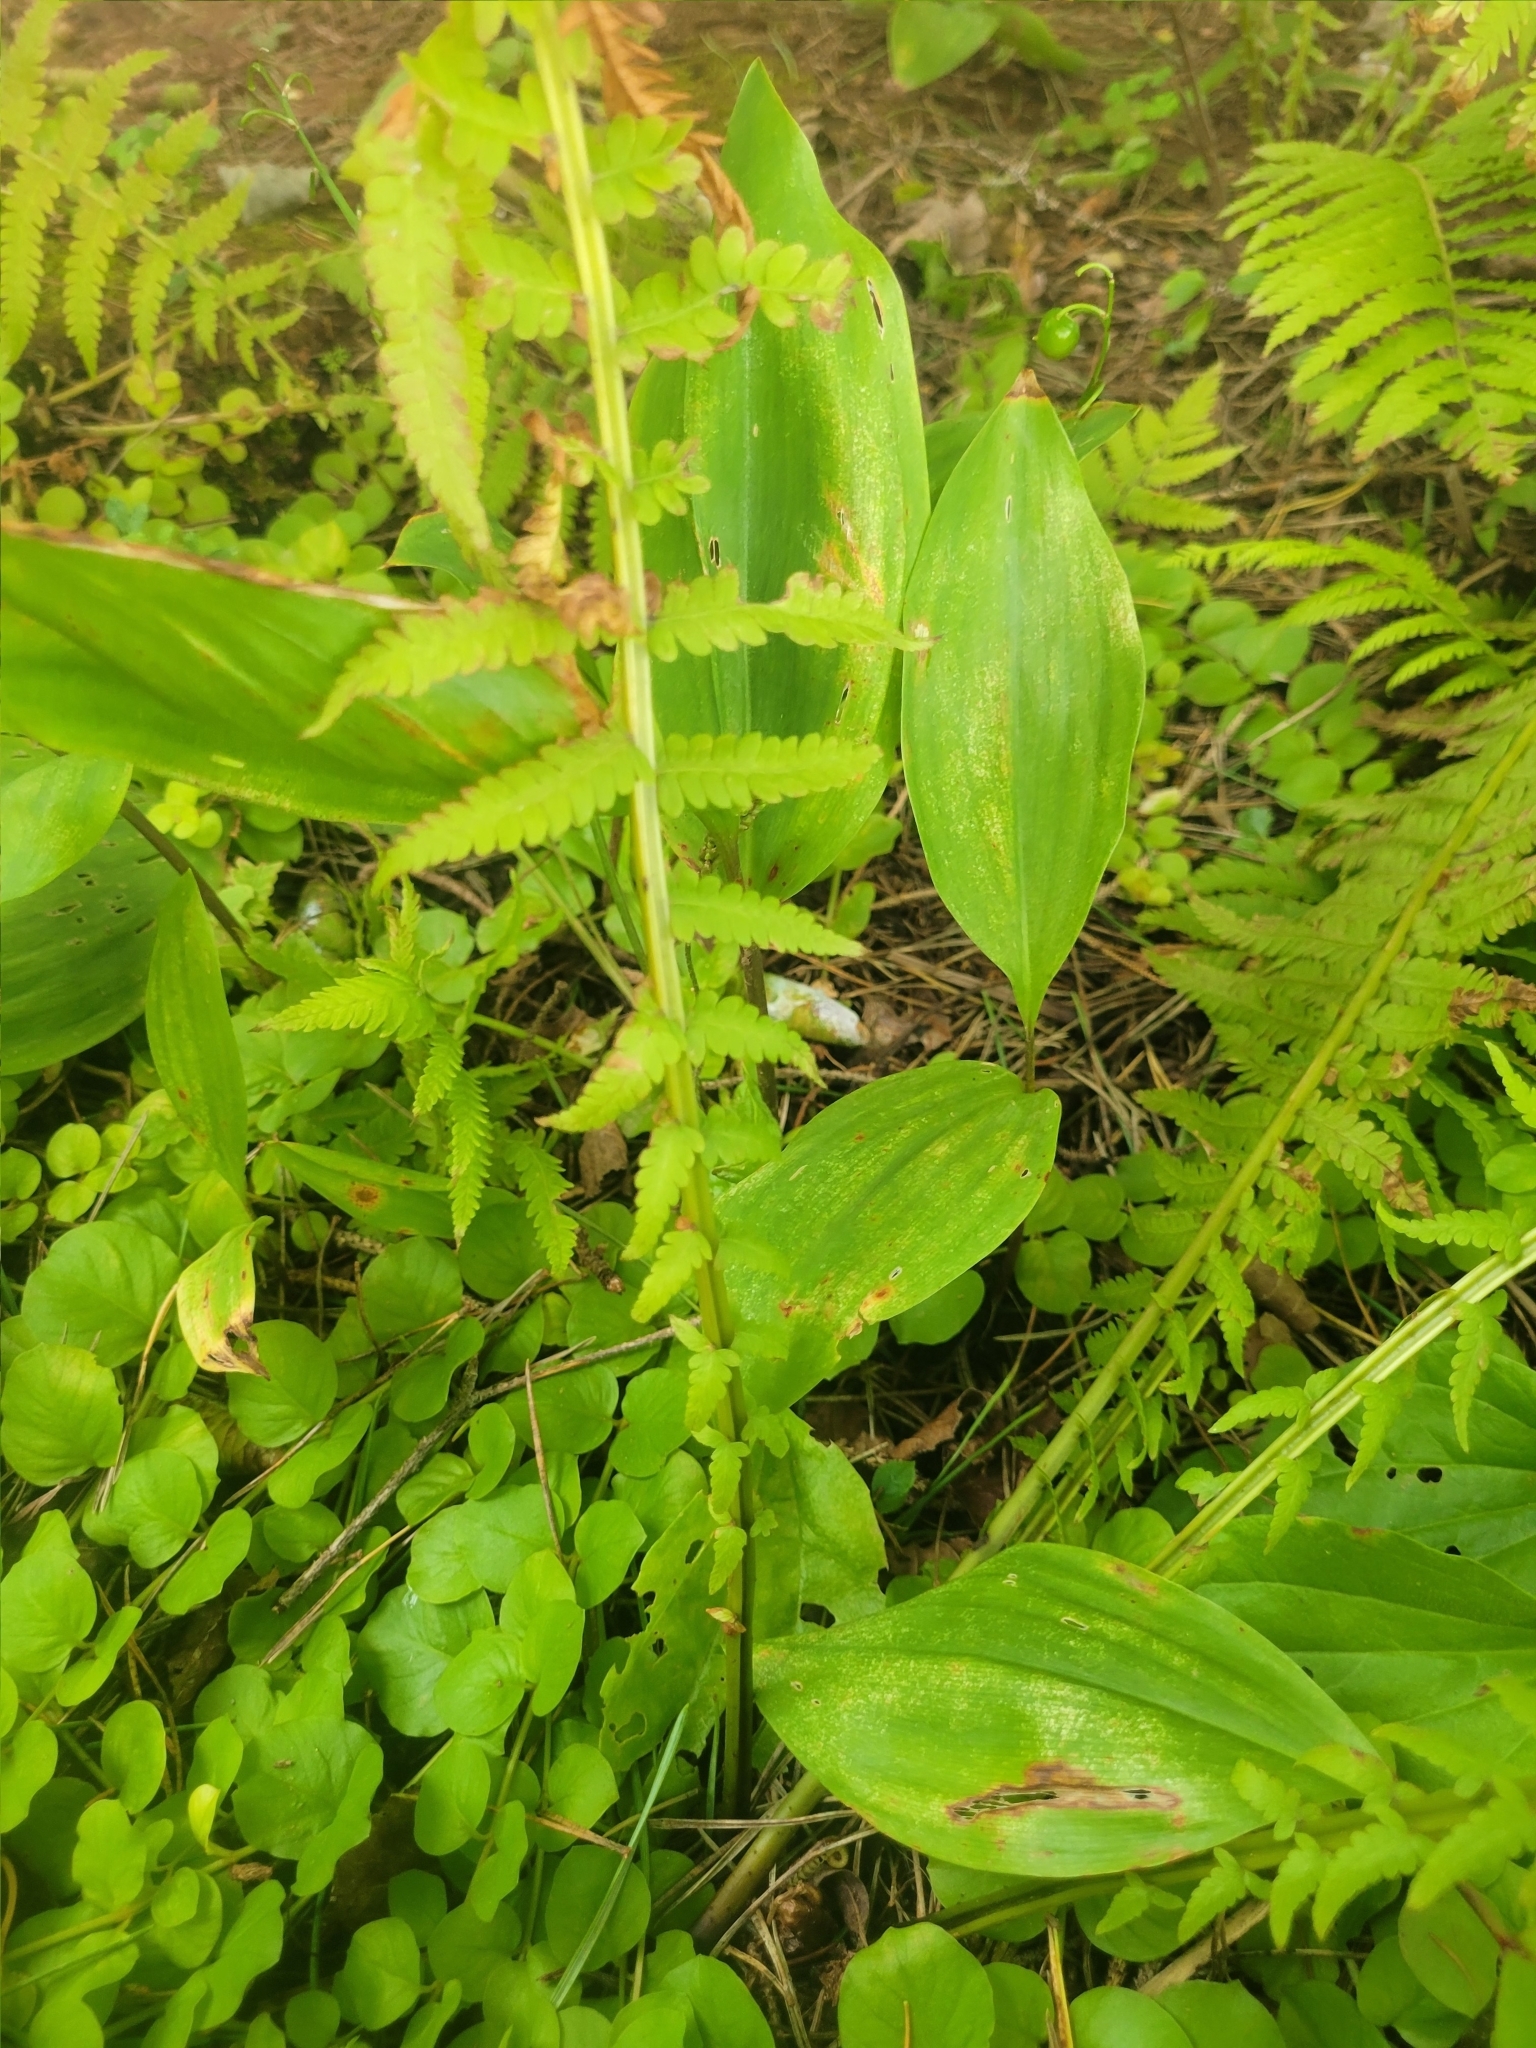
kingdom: Plantae
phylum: Tracheophyta
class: Polypodiopsida
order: Polypodiales
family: Onocleaceae
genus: Matteuccia
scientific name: Matteuccia struthiopteris
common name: Ostrich fern
